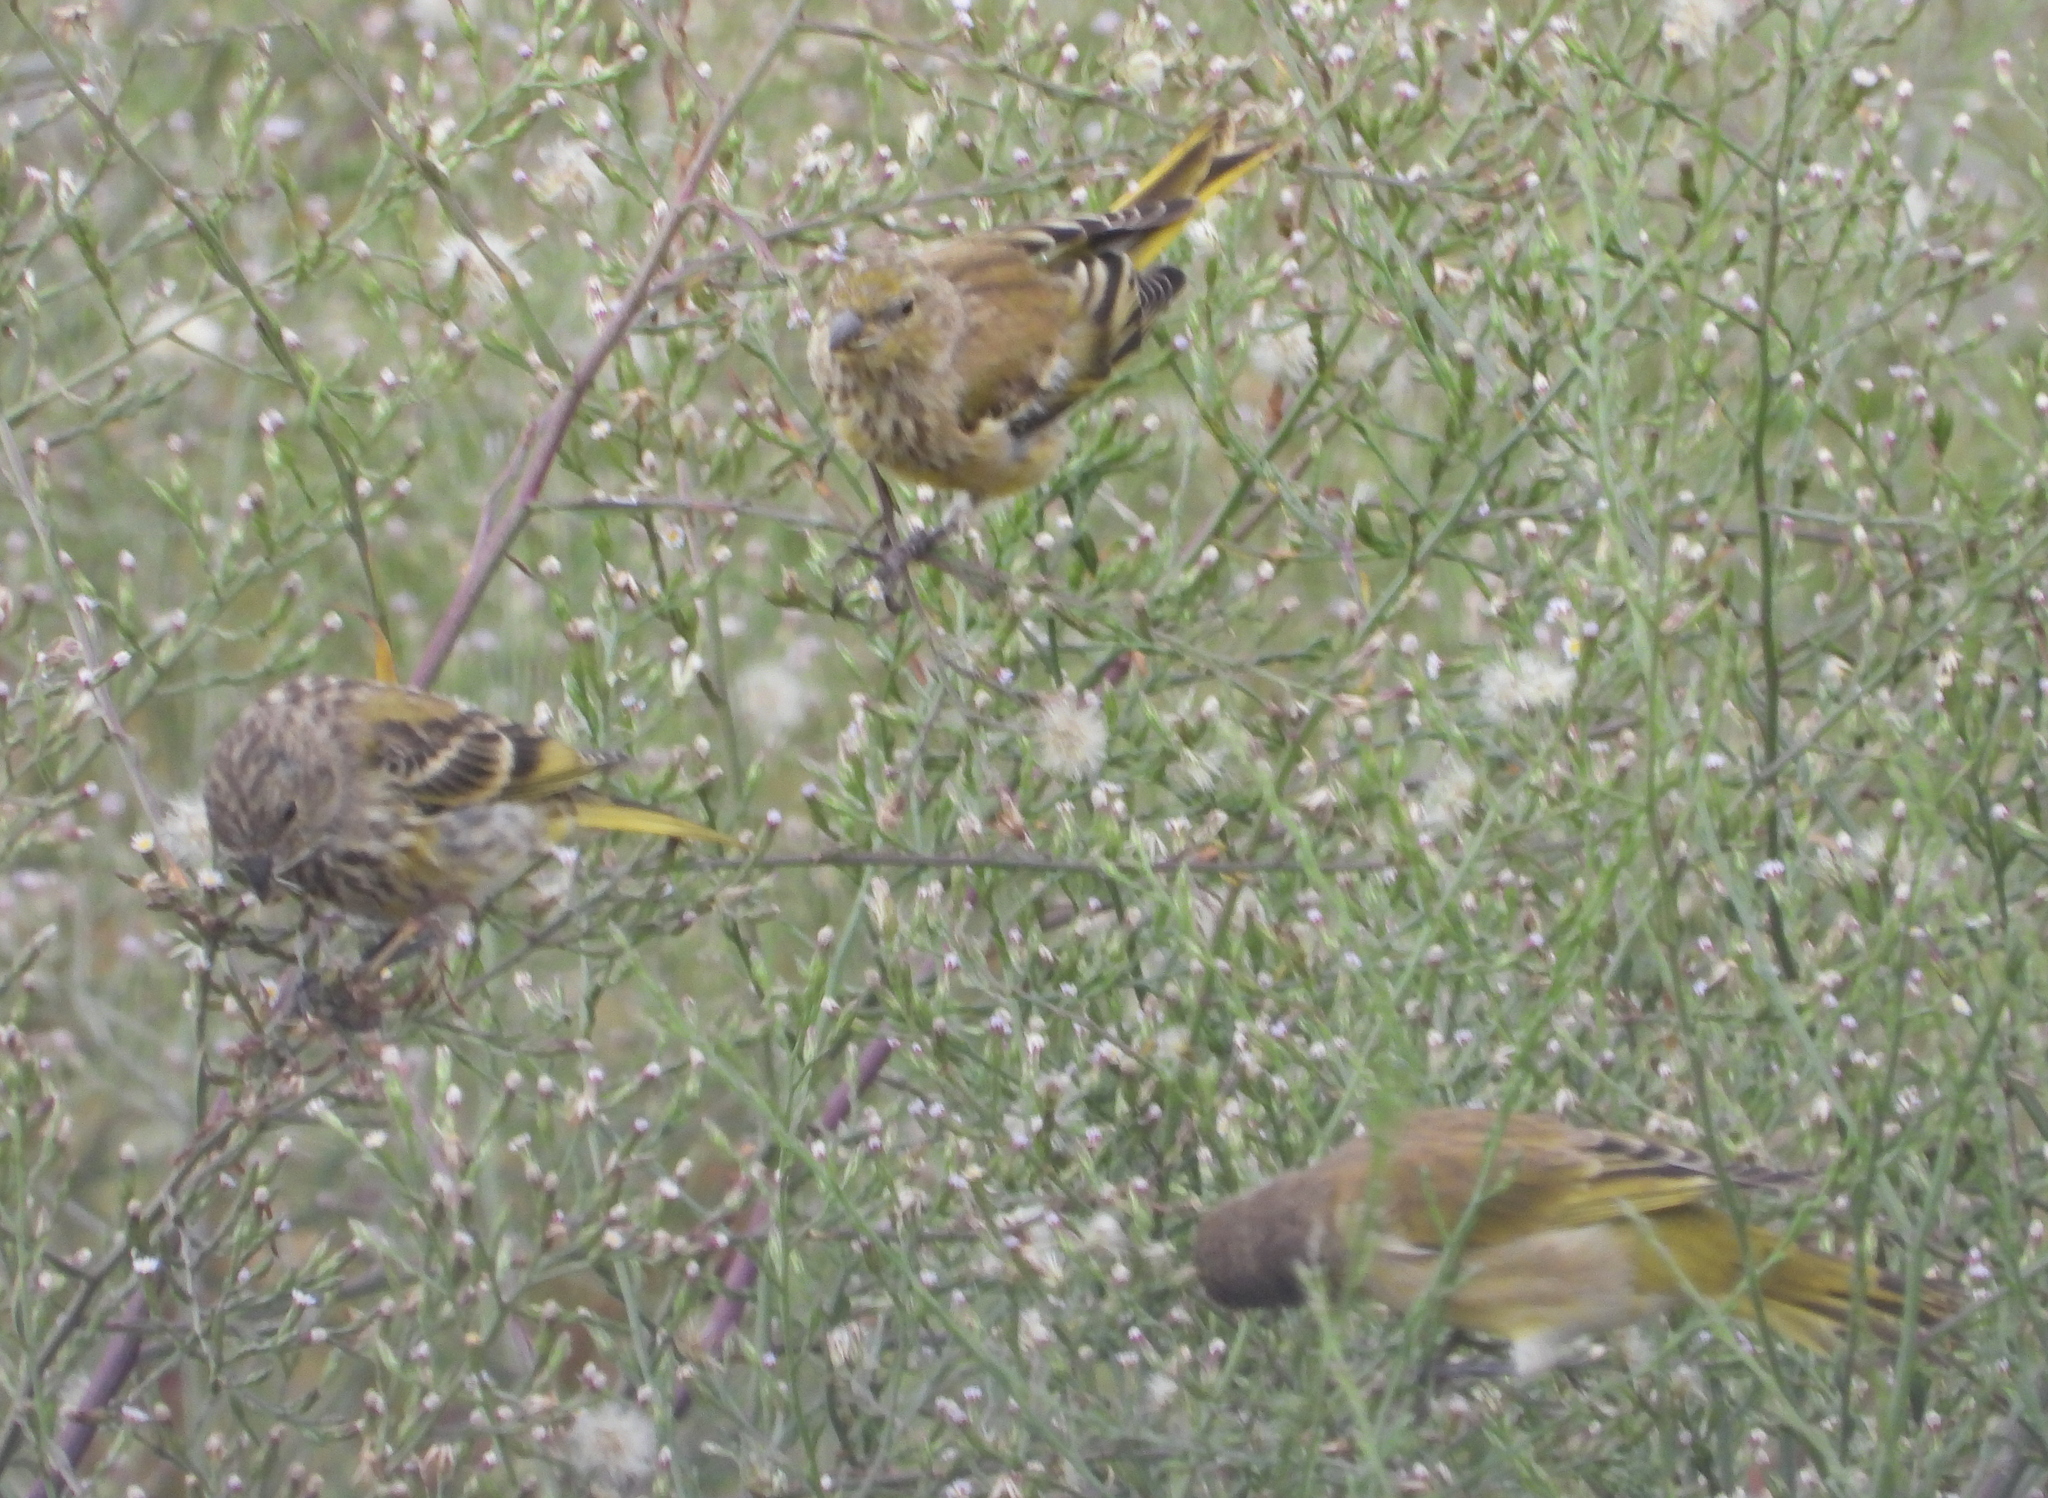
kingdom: Animalia
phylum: Chordata
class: Aves
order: Passeriformes
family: Fringillidae
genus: Serinus
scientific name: Serinus canicollis
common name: Cape canary
